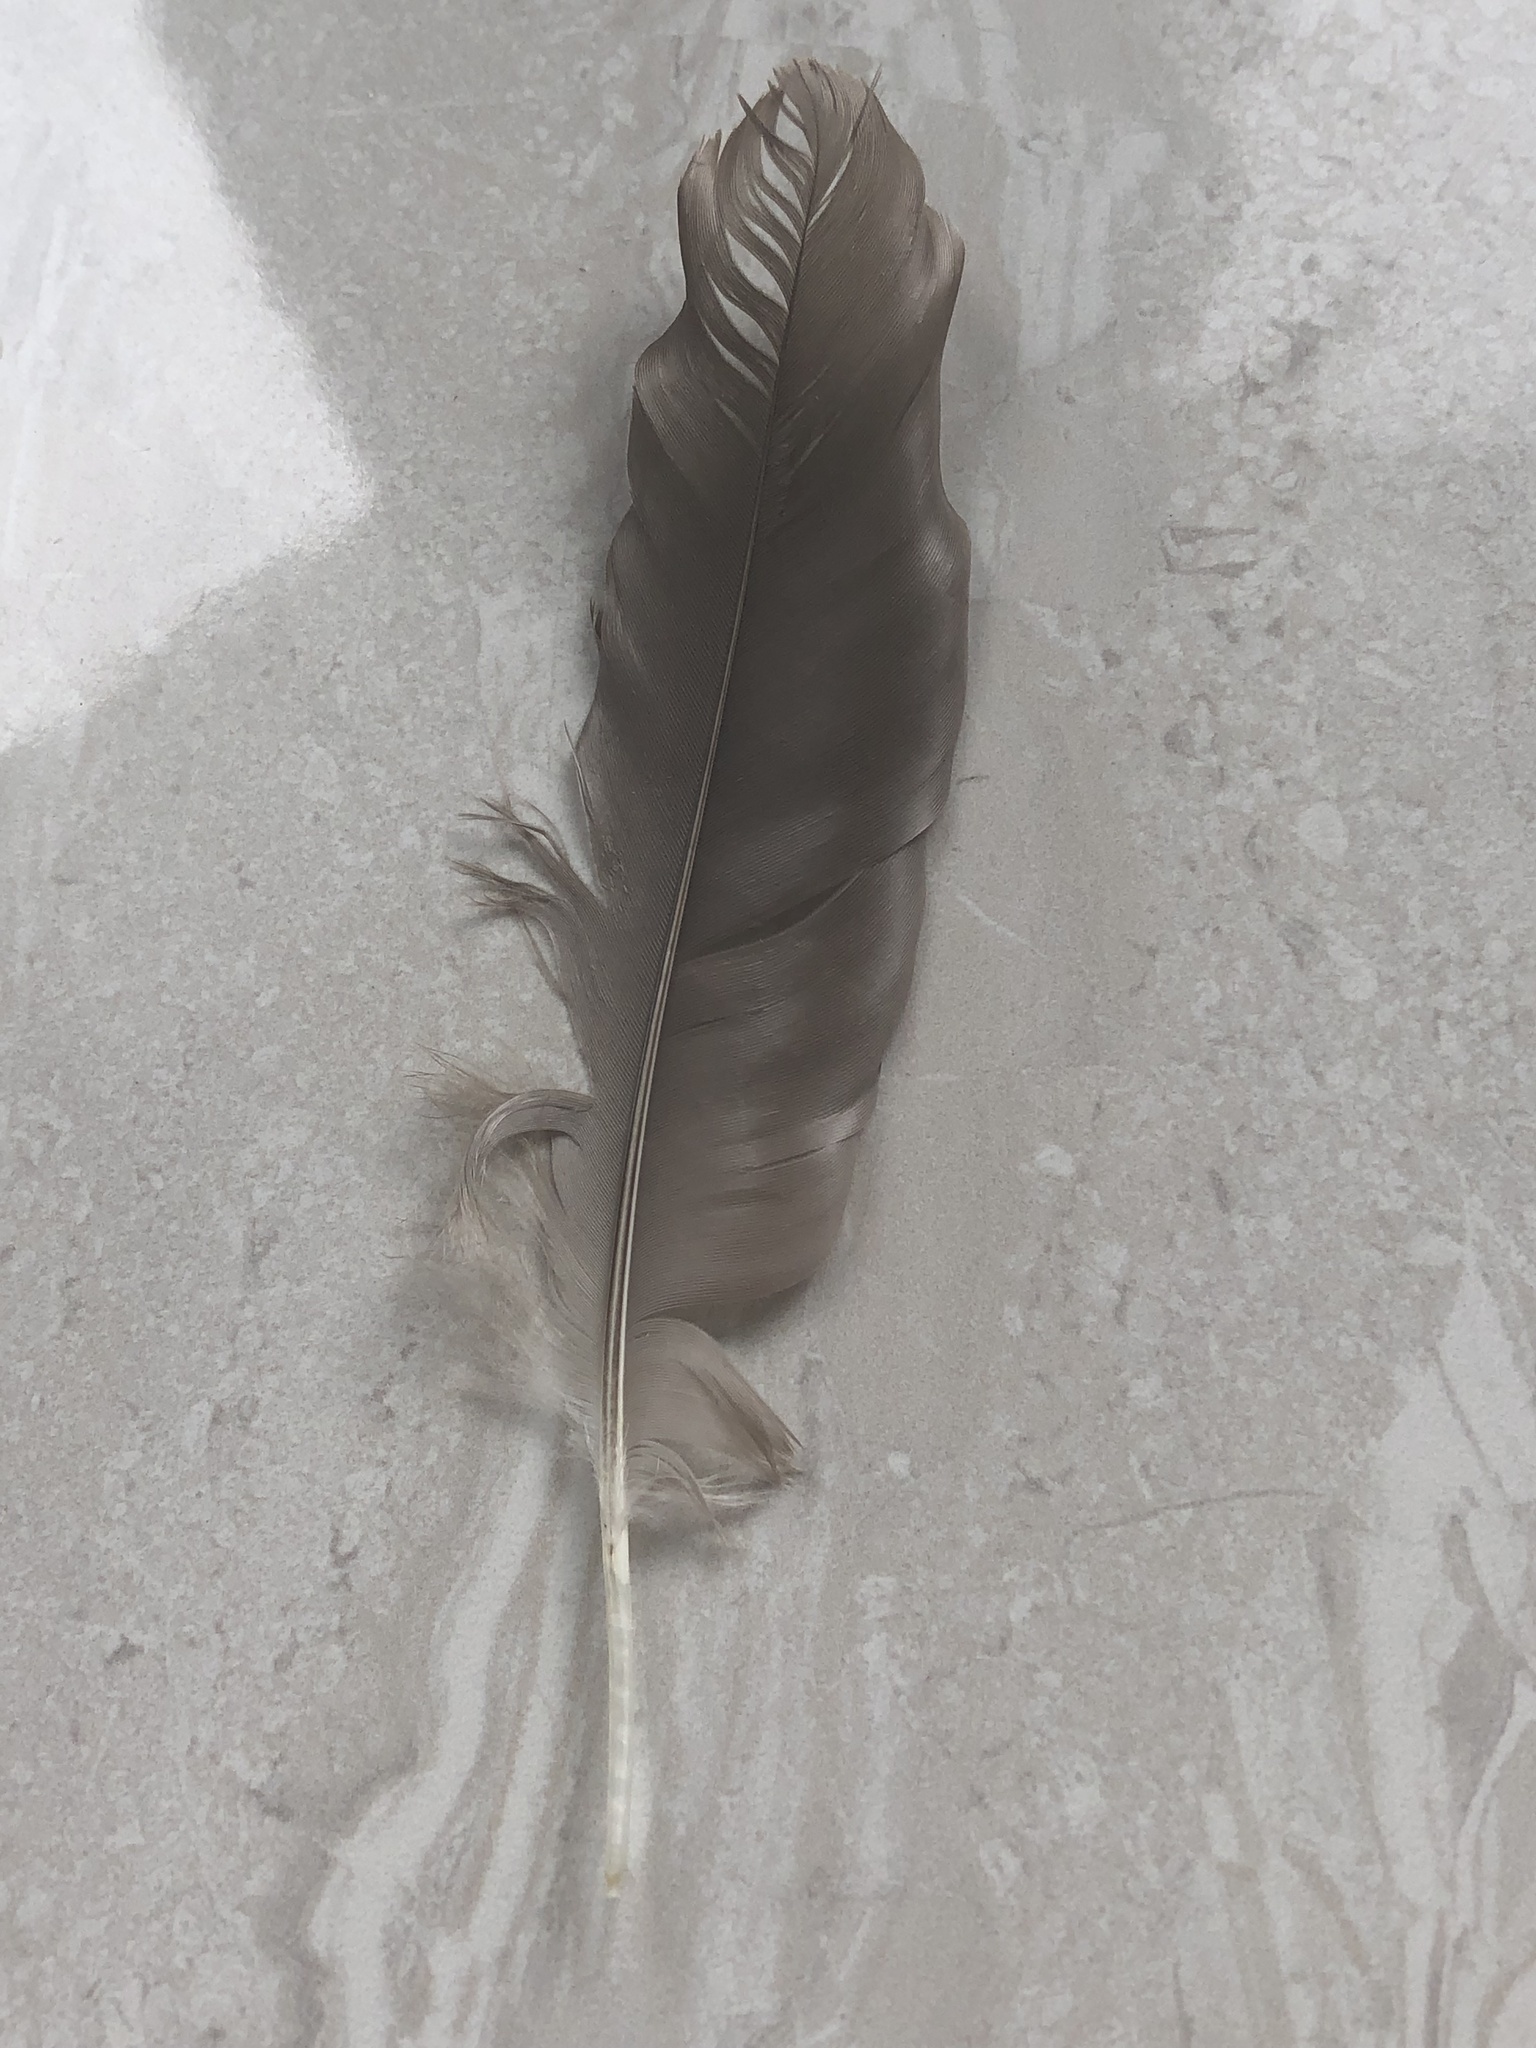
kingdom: Animalia
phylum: Chordata
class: Aves
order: Anseriformes
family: Anatidae
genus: Branta
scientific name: Branta canadensis
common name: Canada goose
